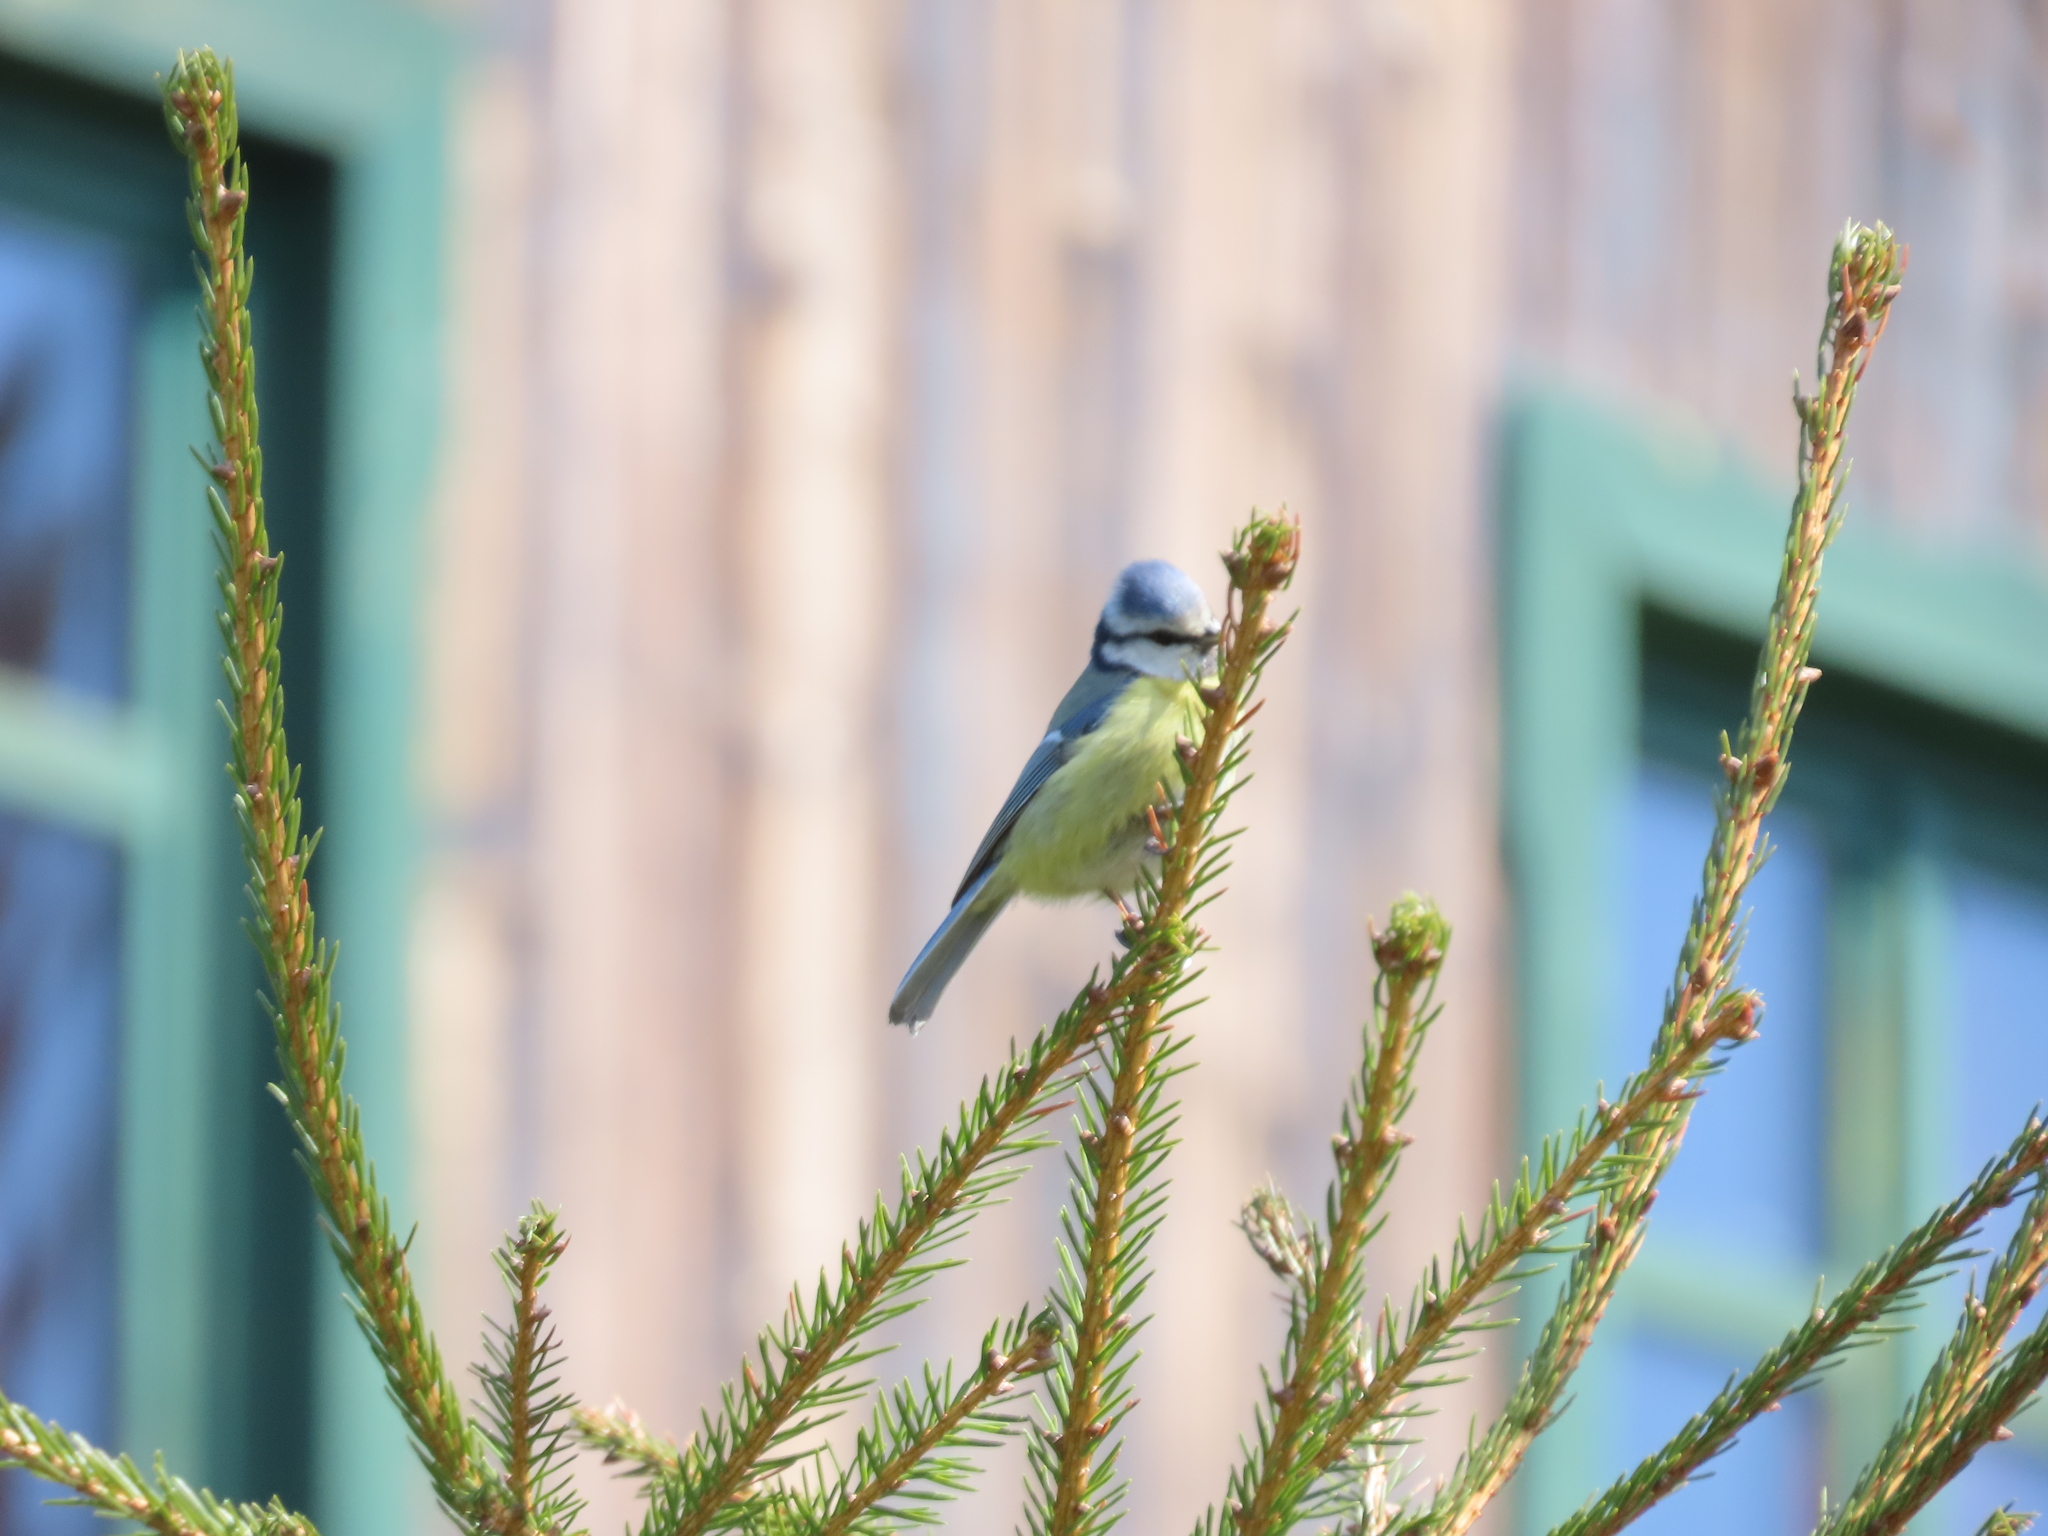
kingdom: Animalia
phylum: Chordata
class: Aves
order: Passeriformes
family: Paridae
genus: Cyanistes
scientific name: Cyanistes caeruleus
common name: Eurasian blue tit
